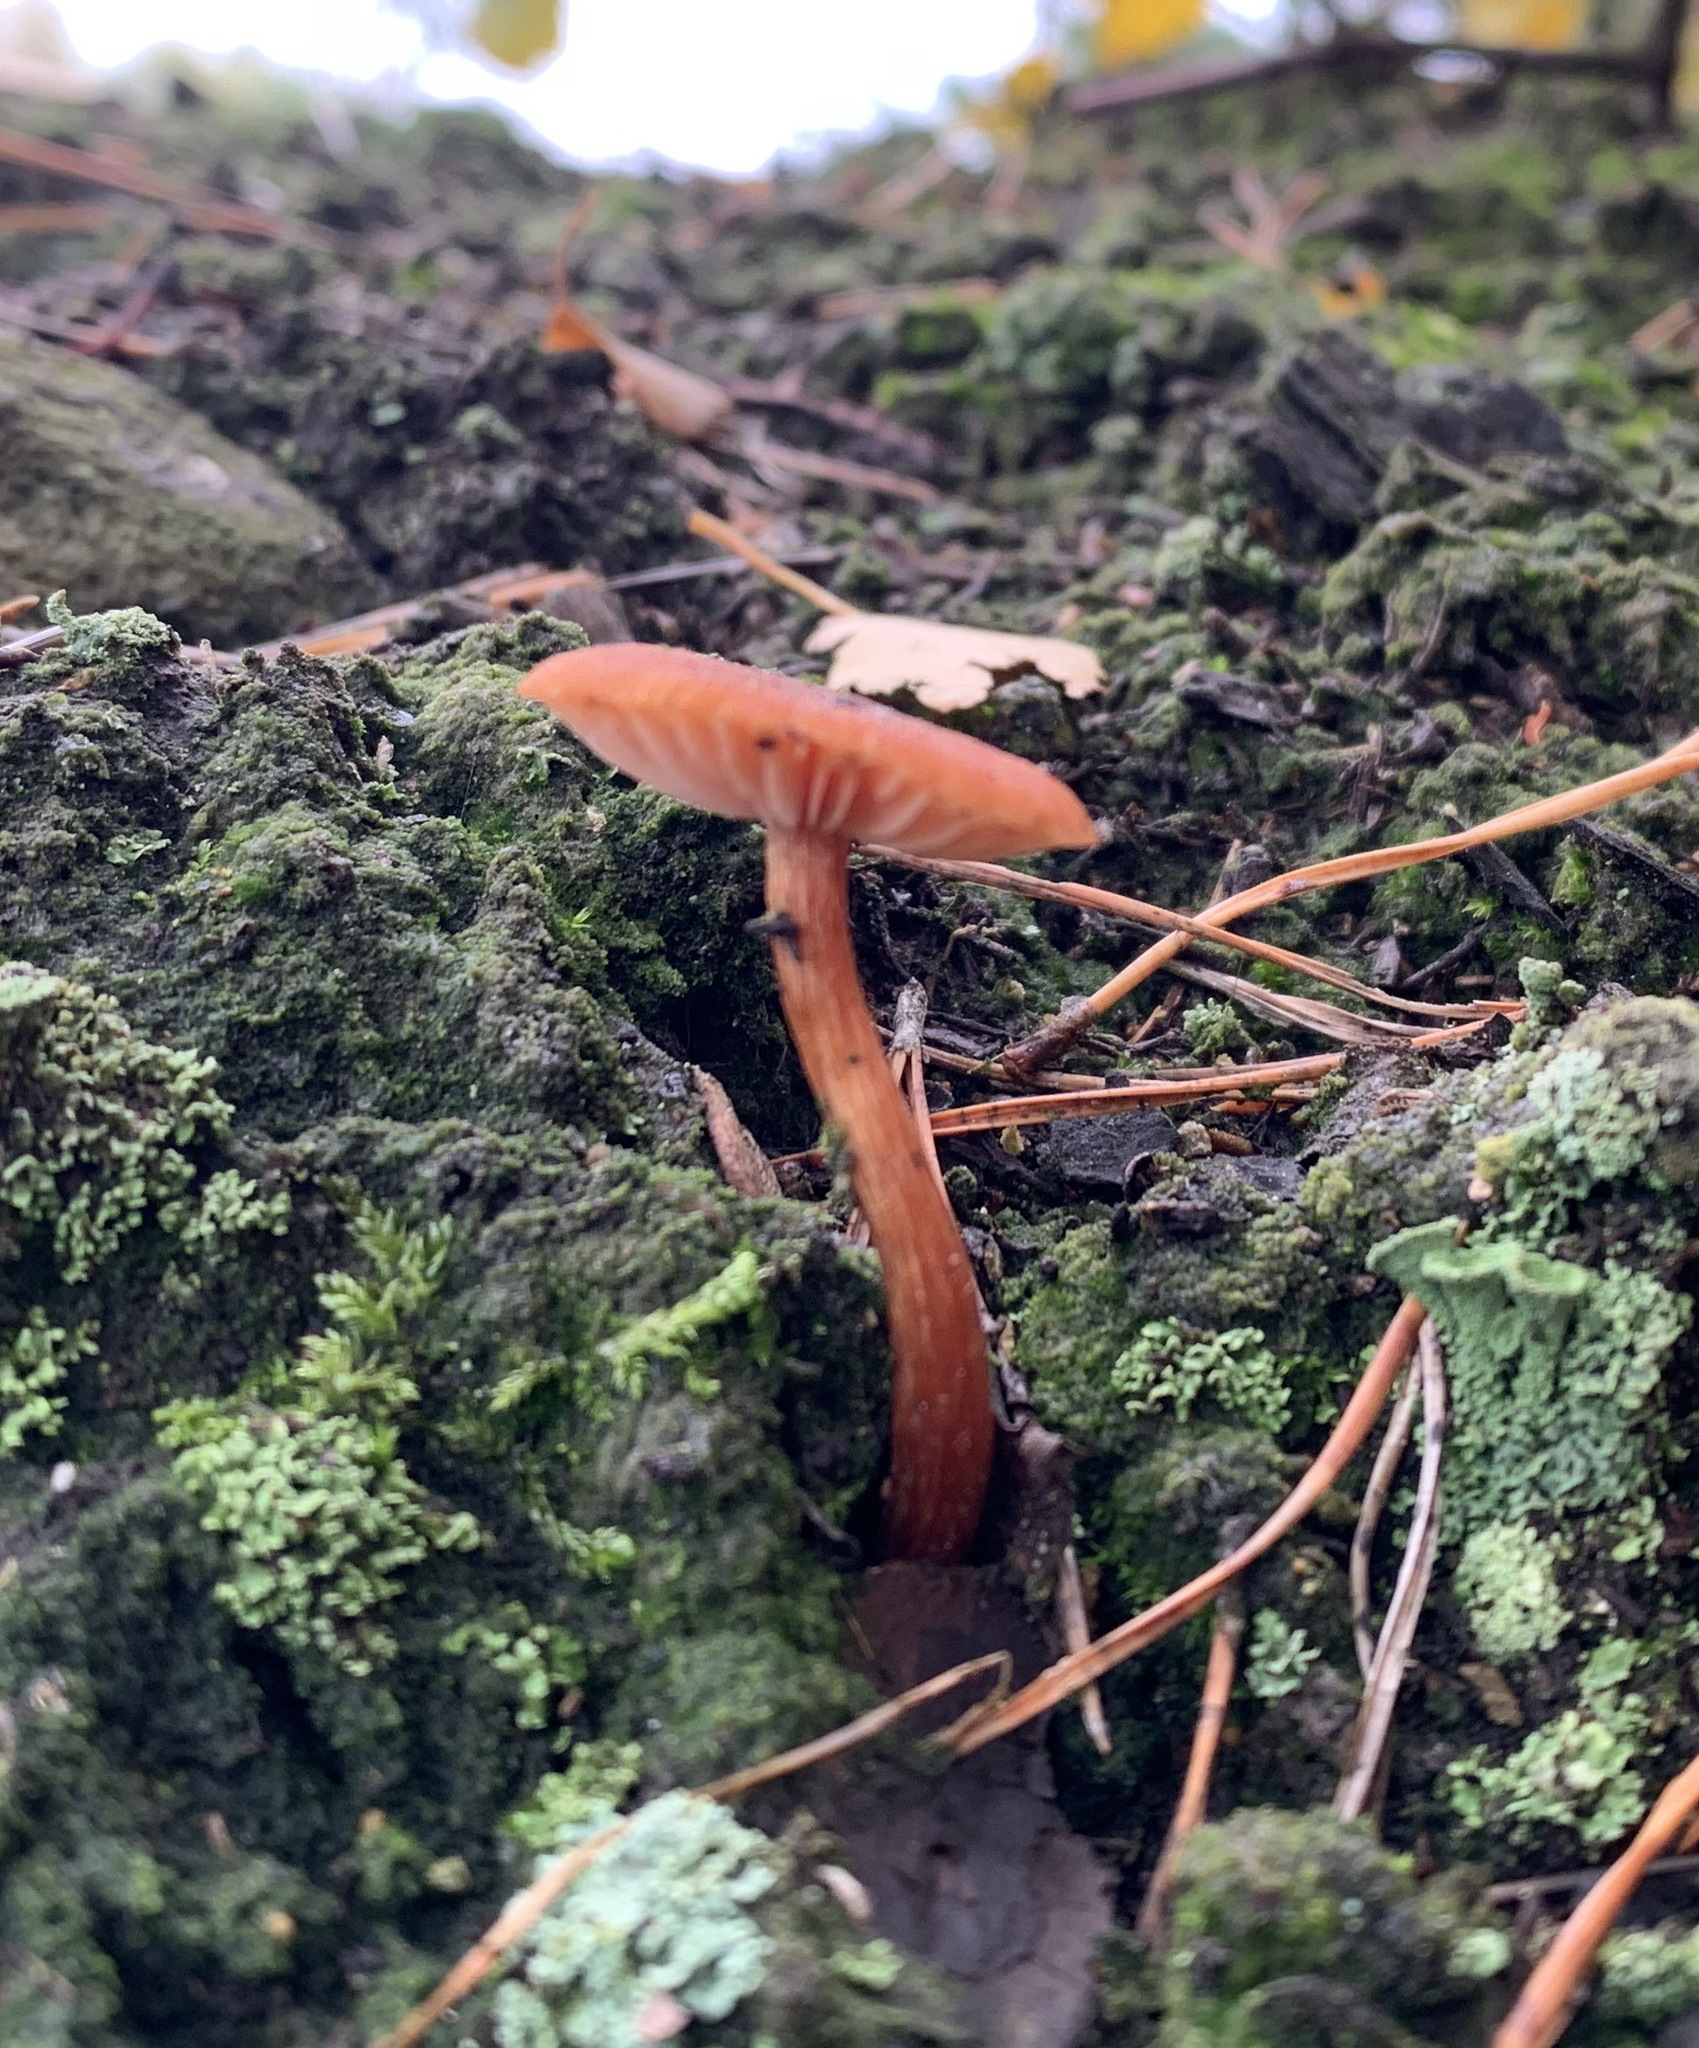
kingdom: Fungi
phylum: Basidiomycota
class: Agaricomycetes
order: Agaricales
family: Hydnangiaceae
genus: Laccaria
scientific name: Laccaria laccata
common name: Deceiver
